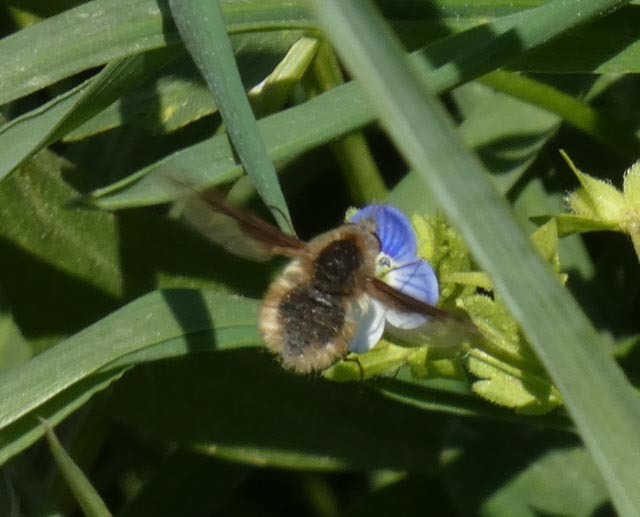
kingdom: Animalia
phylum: Arthropoda
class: Insecta
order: Diptera
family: Bombyliidae
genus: Bombylius
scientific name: Bombylius major
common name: Bee fly
